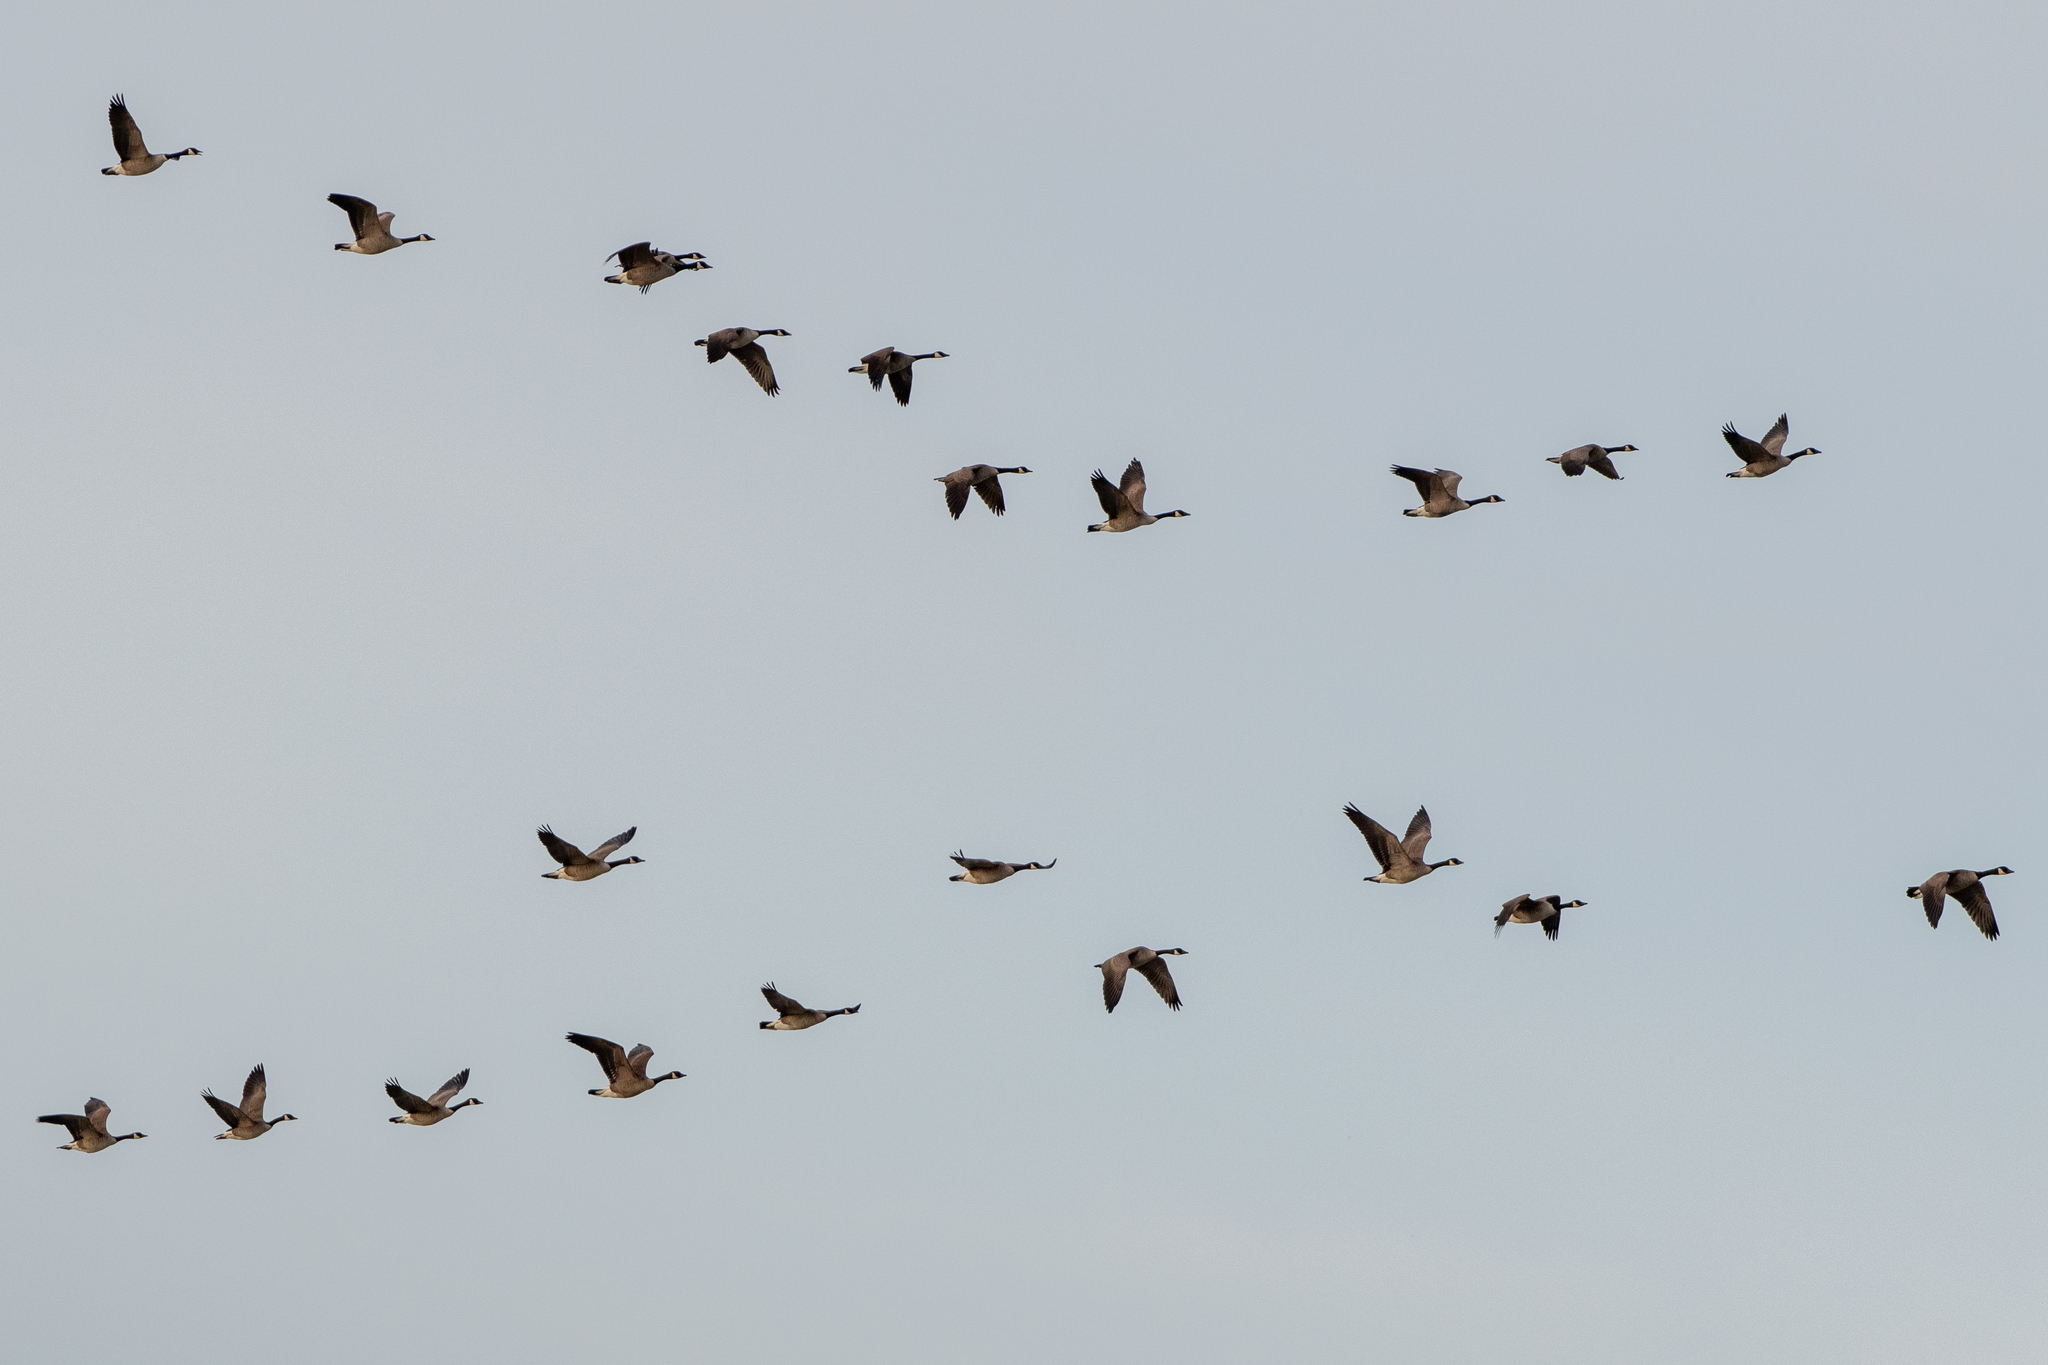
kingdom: Animalia
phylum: Chordata
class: Aves
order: Anseriformes
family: Anatidae
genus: Branta
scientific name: Branta canadensis
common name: Canada goose
